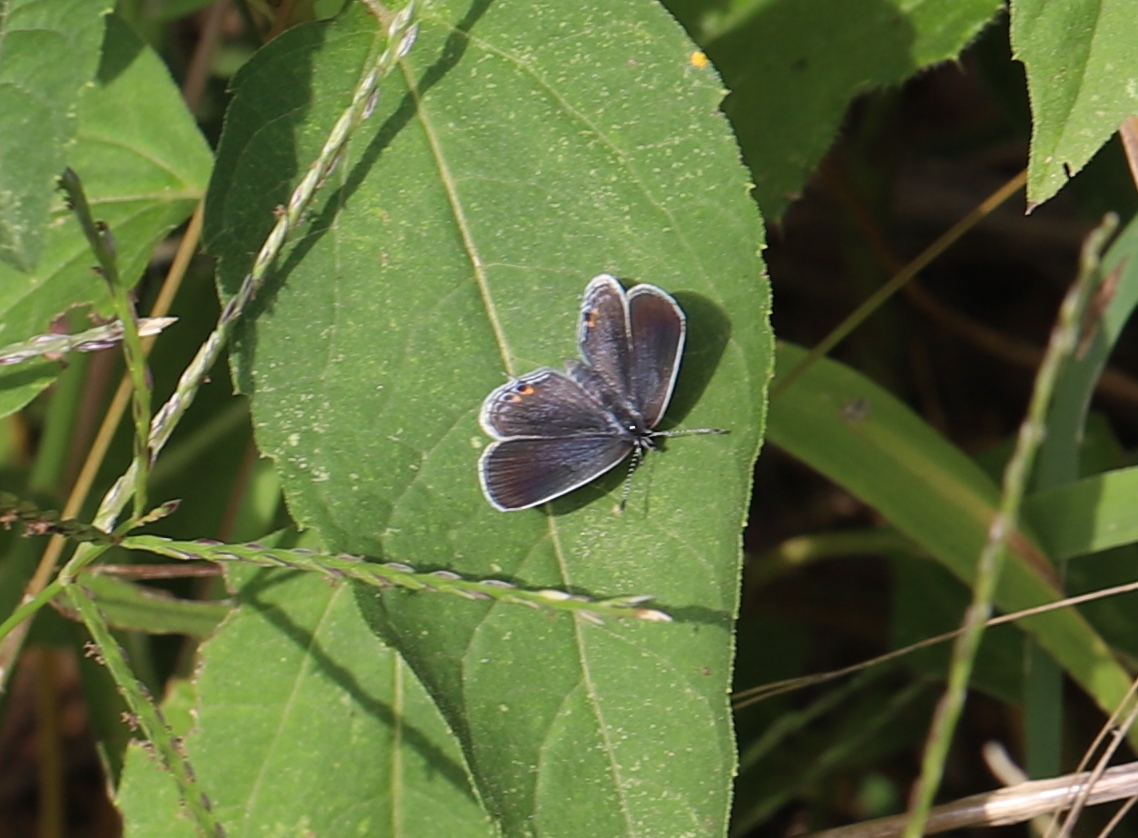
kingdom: Animalia
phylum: Arthropoda
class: Insecta
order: Lepidoptera
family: Lycaenidae
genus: Elkalyce
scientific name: Elkalyce comyntas
